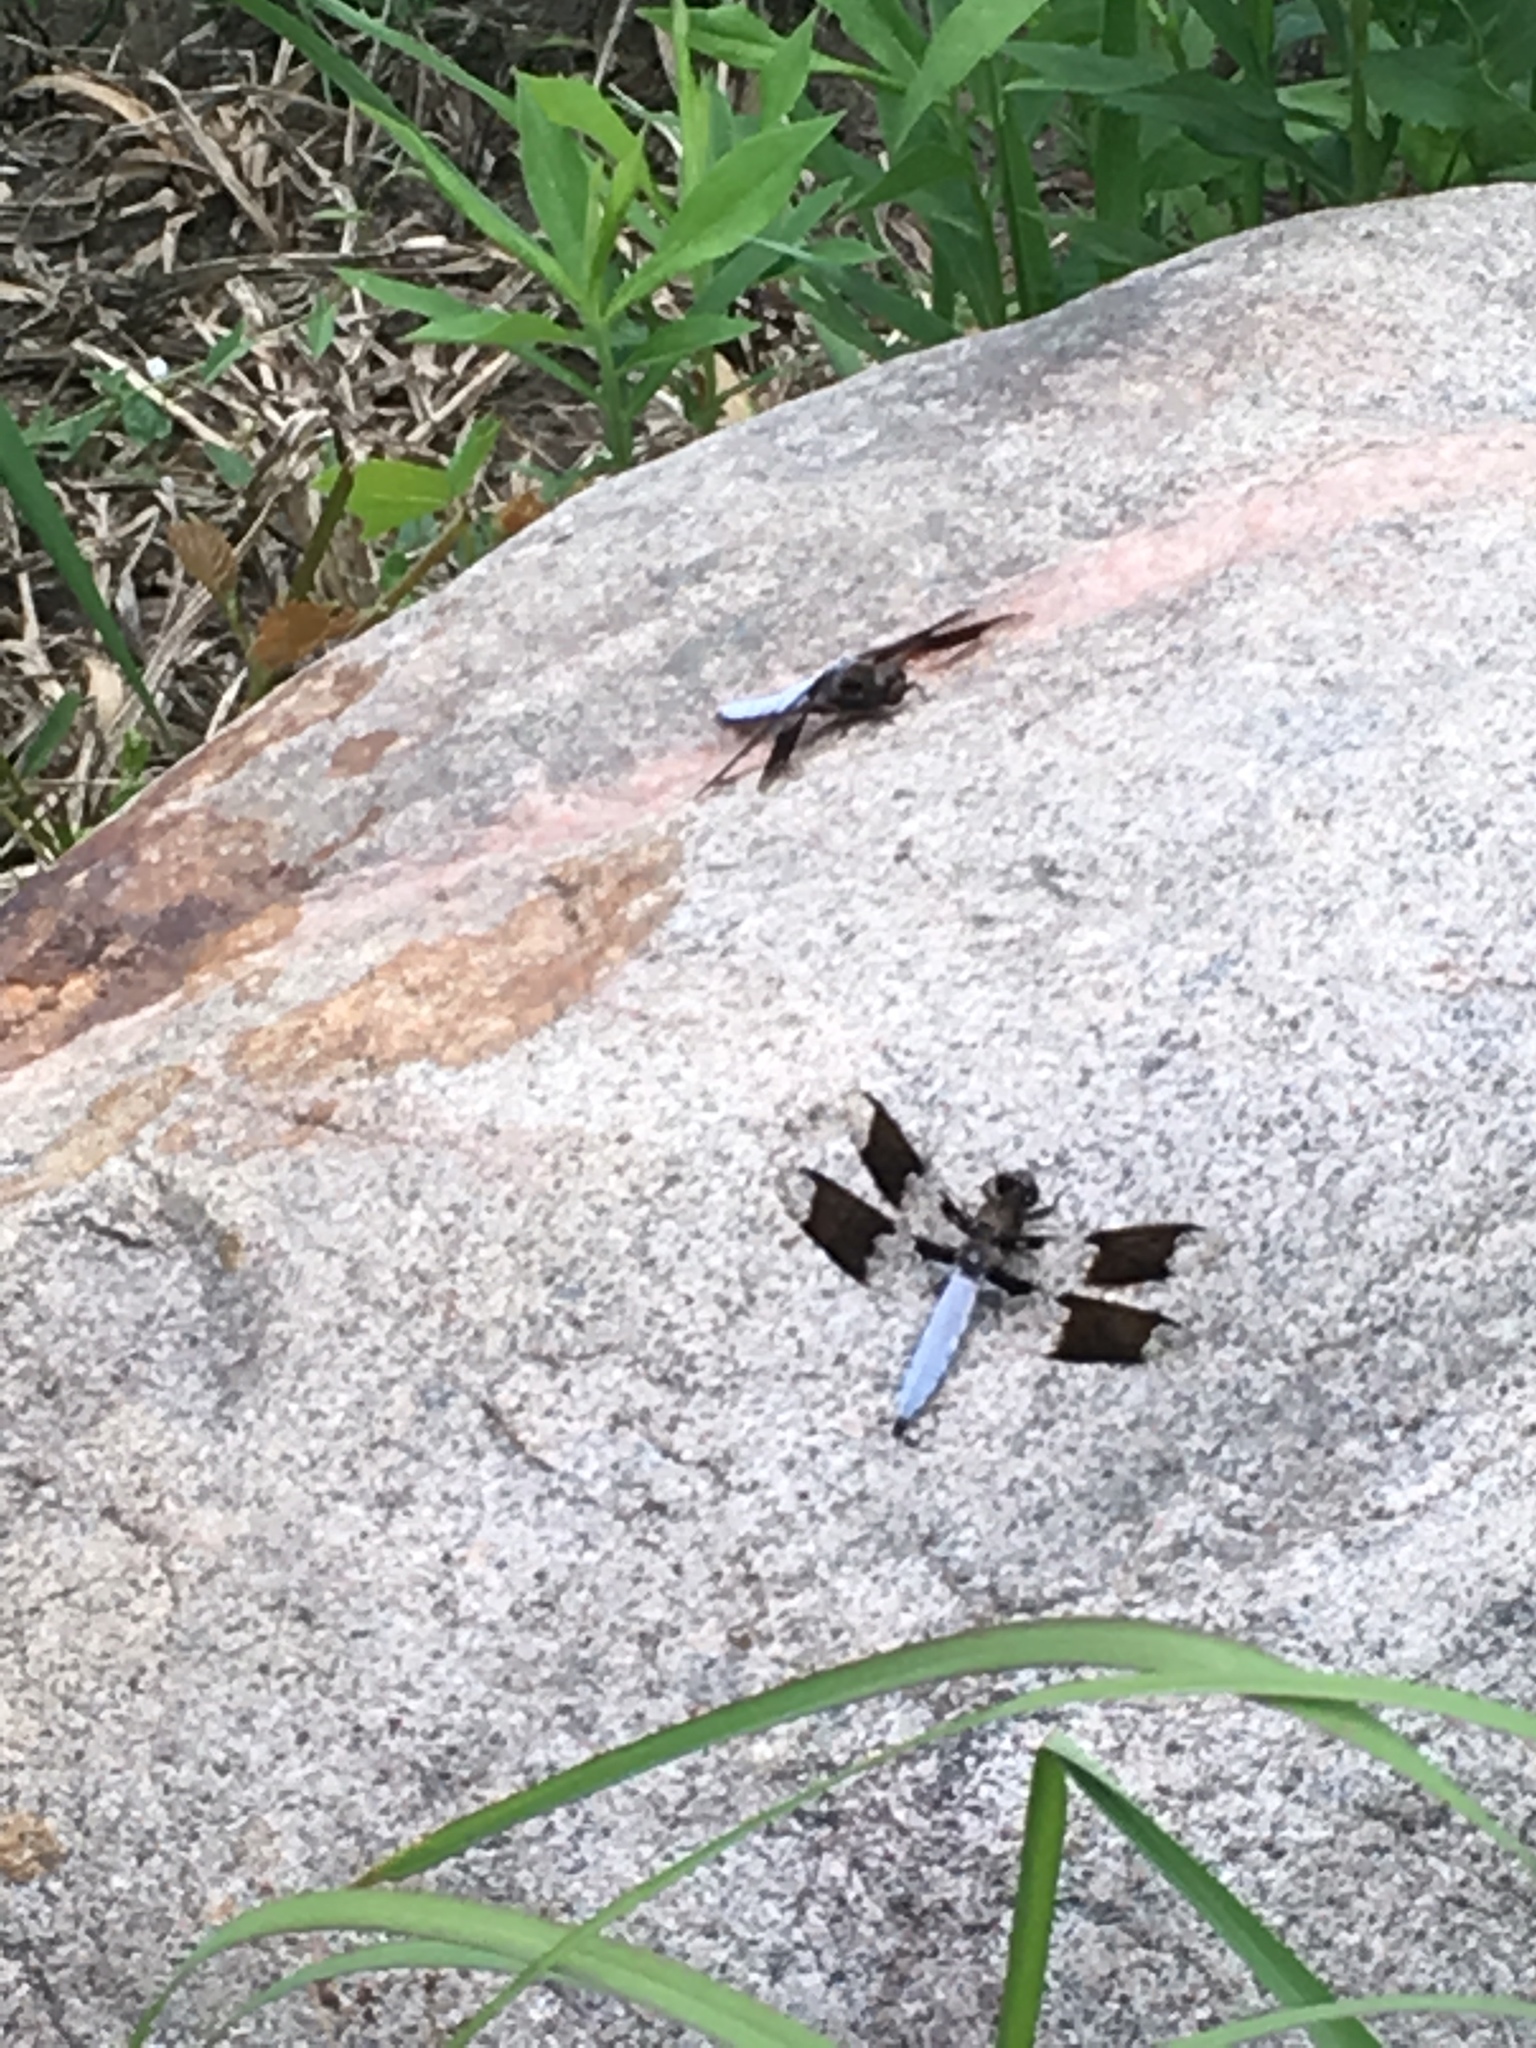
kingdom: Animalia
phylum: Arthropoda
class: Insecta
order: Odonata
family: Libellulidae
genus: Plathemis
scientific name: Plathemis lydia
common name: Common whitetail
